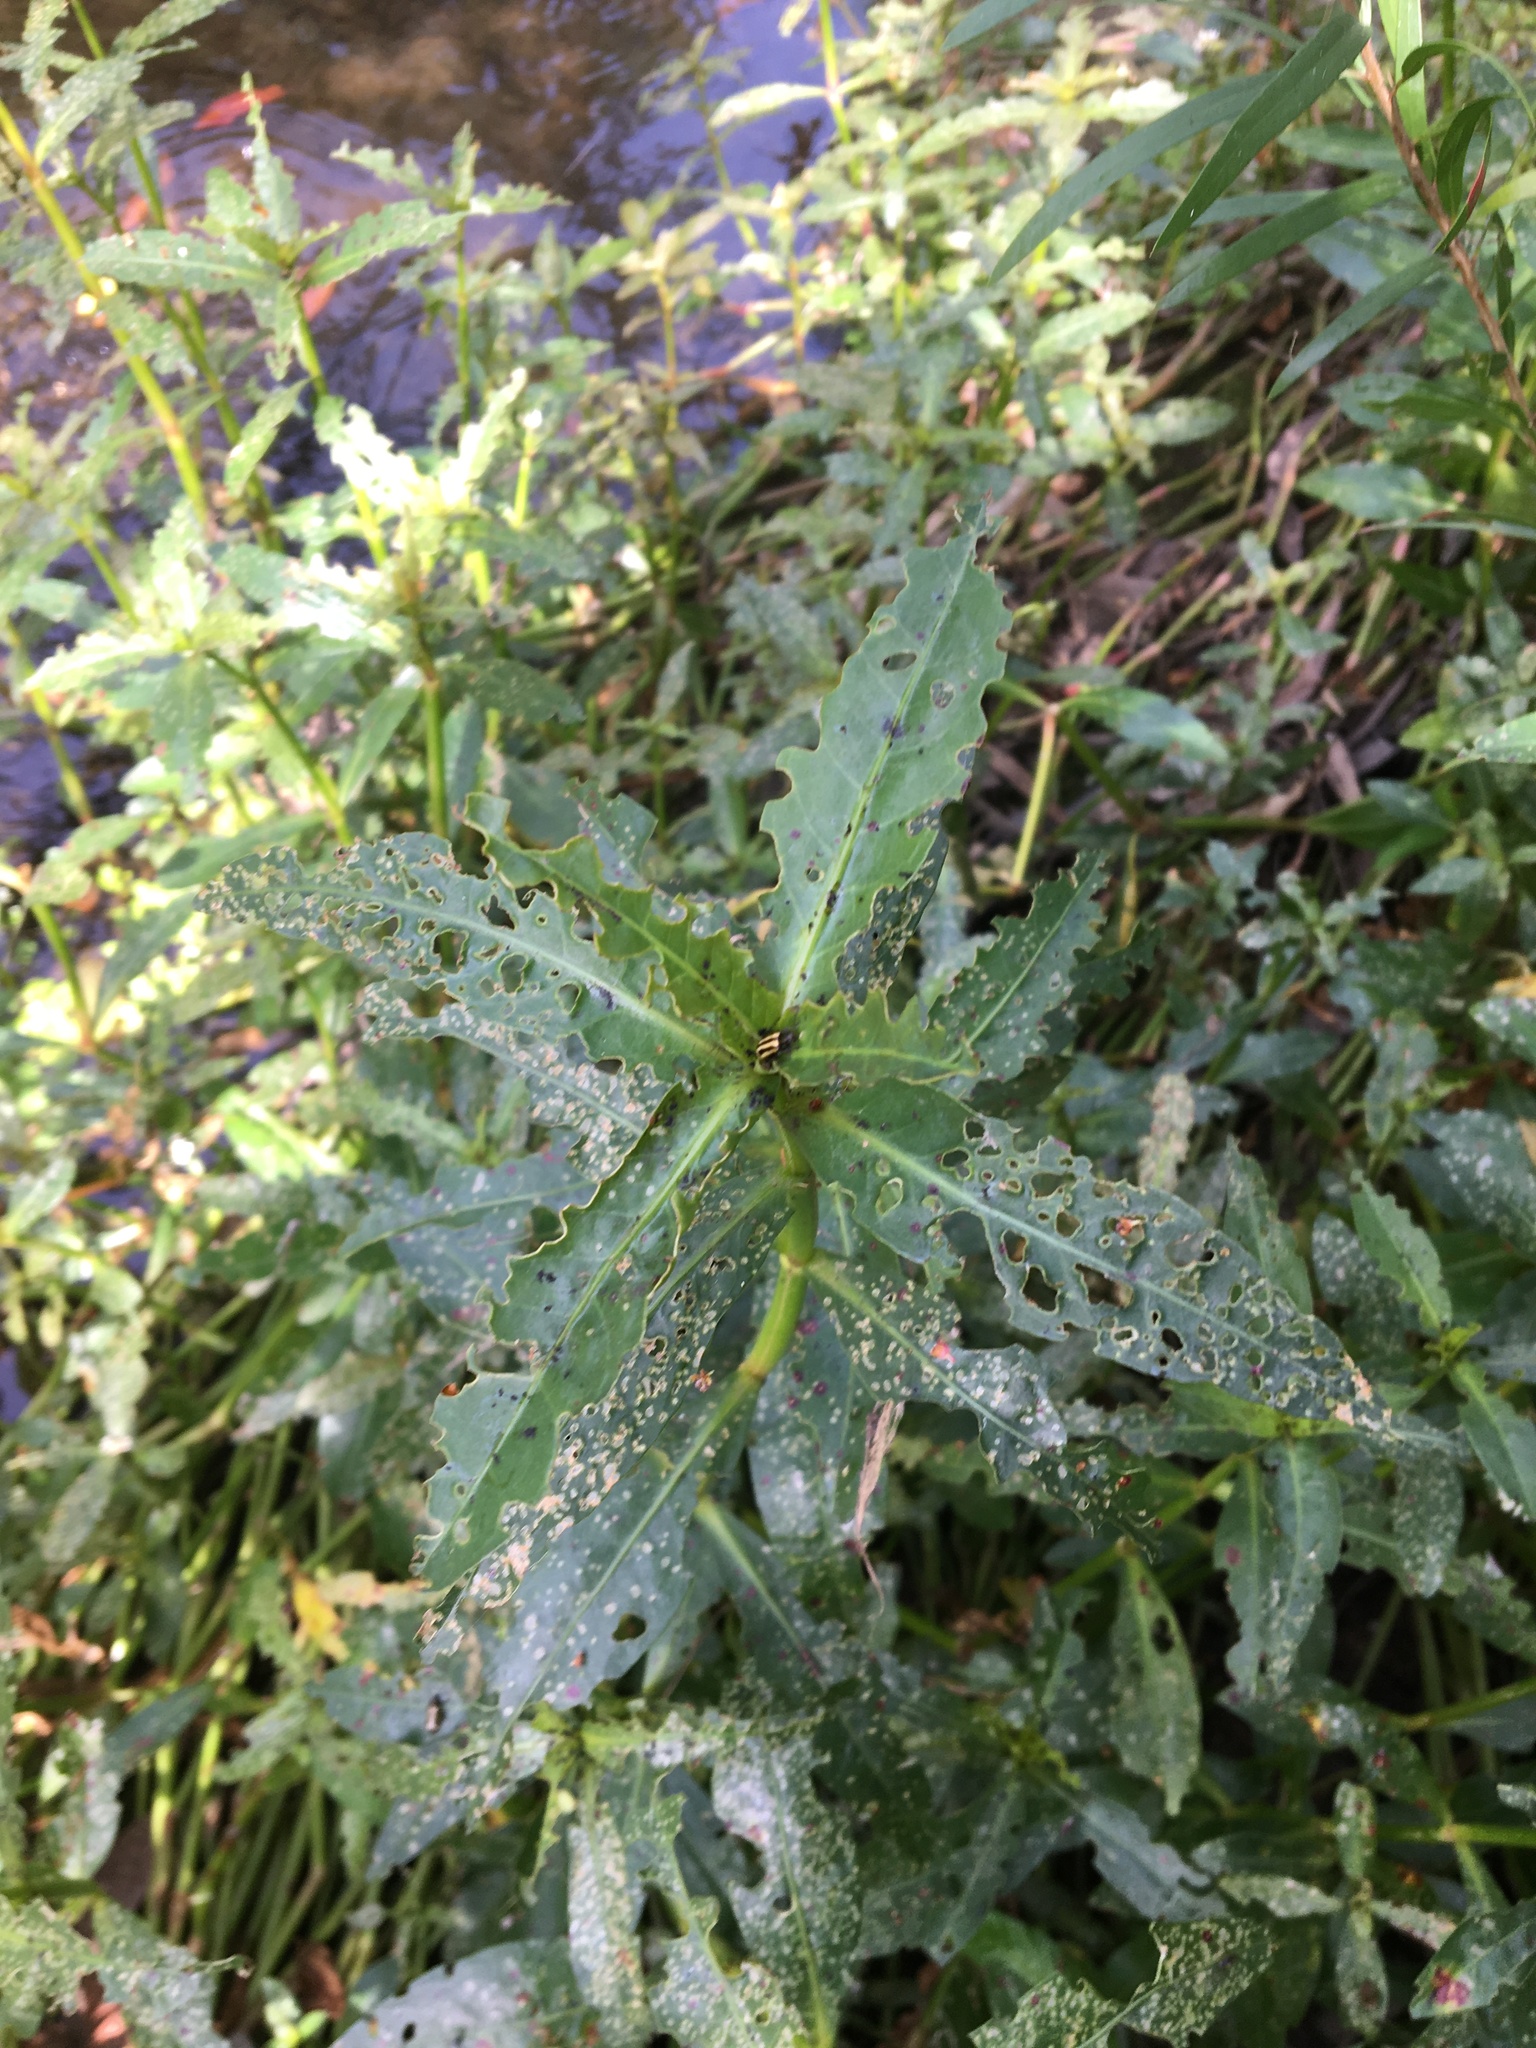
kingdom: Plantae
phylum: Tracheophyta
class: Magnoliopsida
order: Caryophyllales
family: Amaranthaceae
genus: Alternanthera
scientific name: Alternanthera philoxeroides
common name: Alligatorweed
